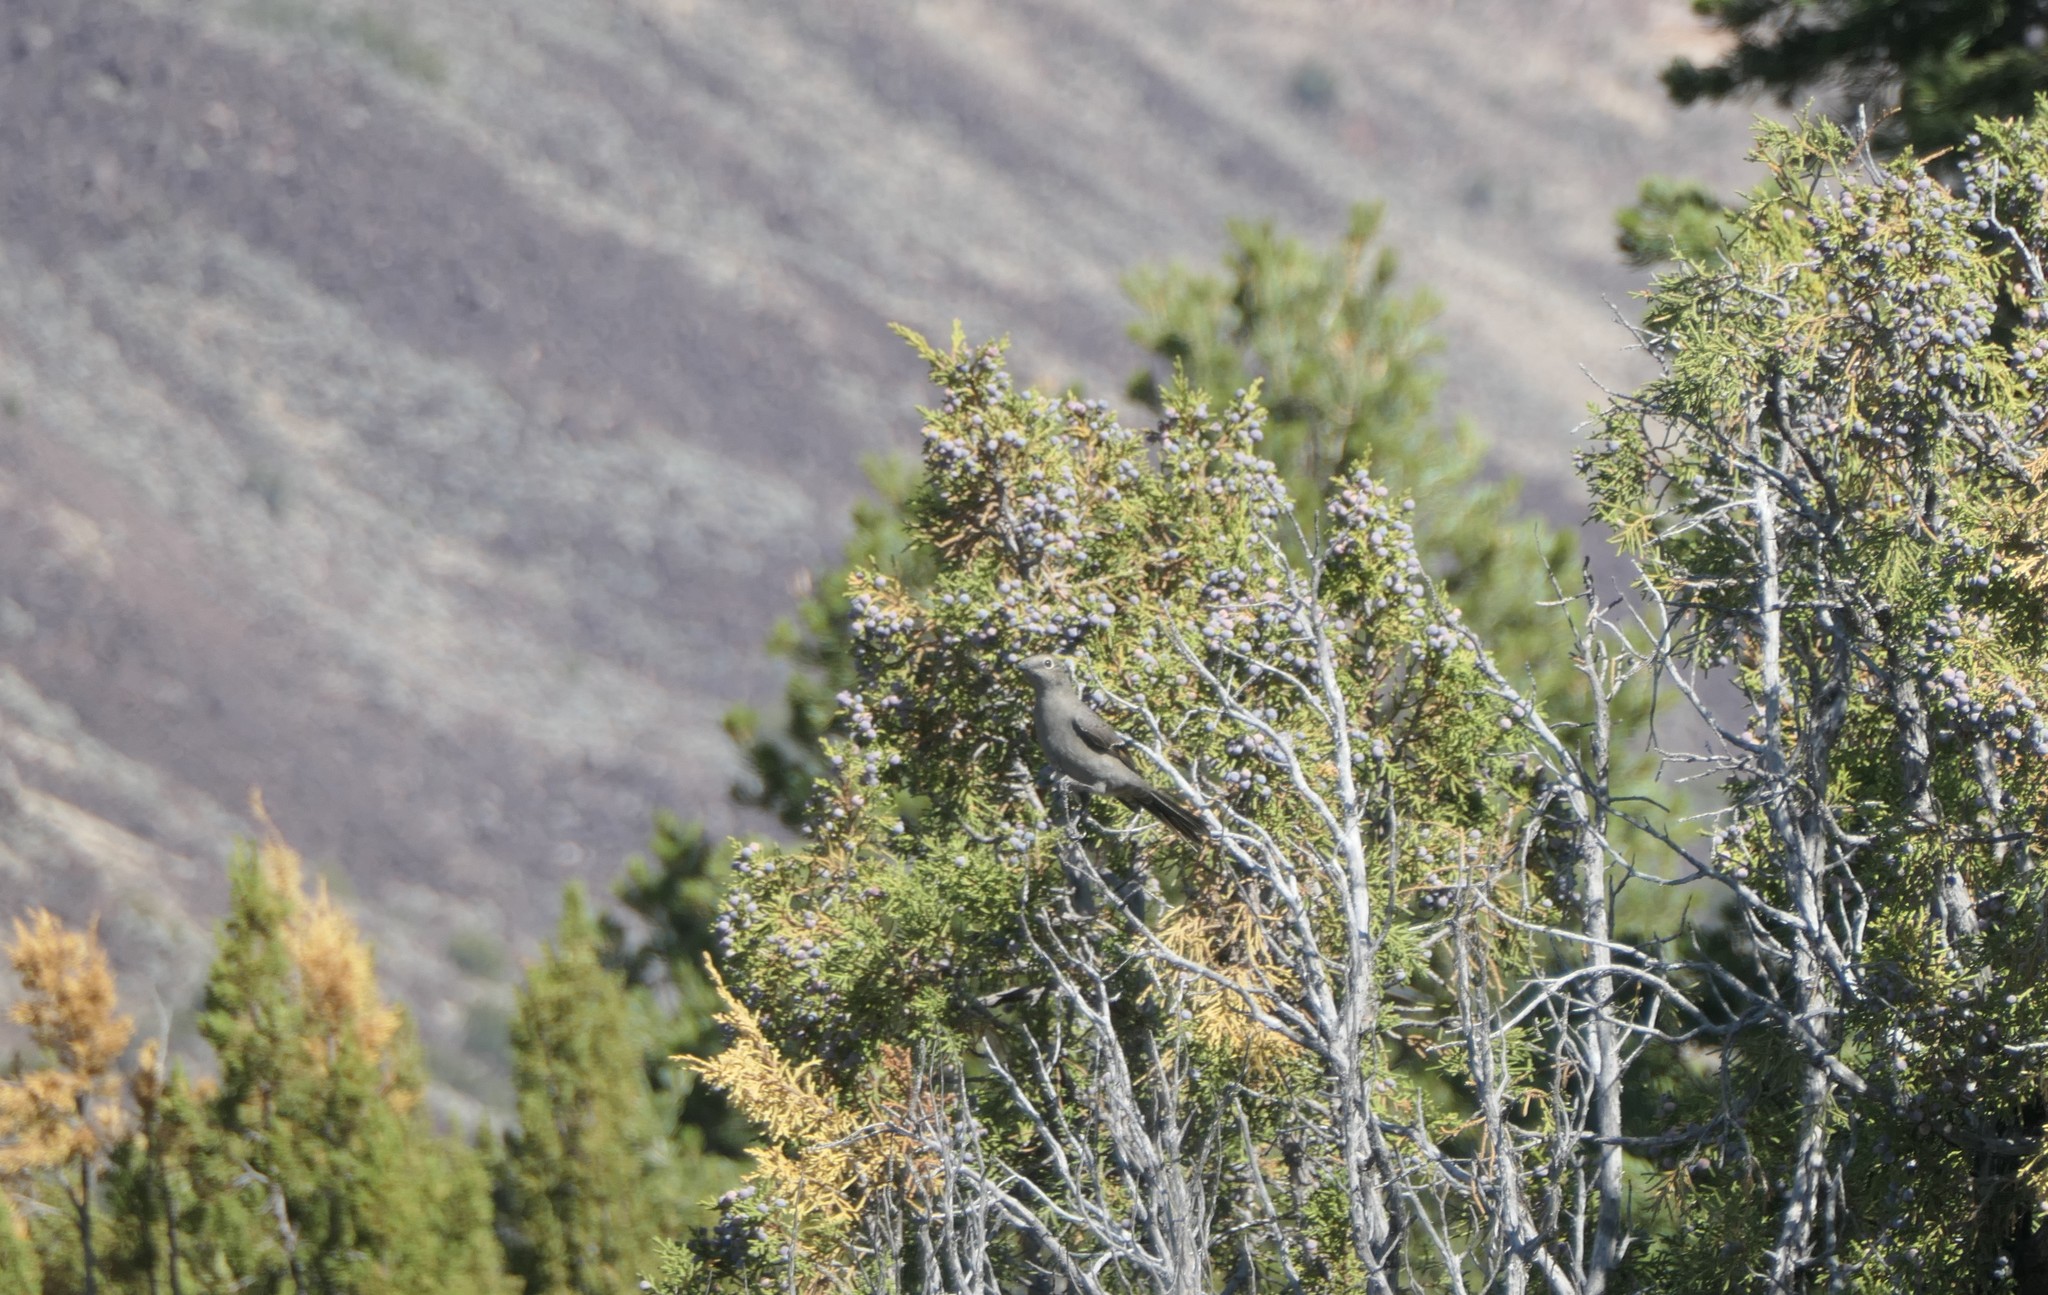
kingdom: Animalia
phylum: Chordata
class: Aves
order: Passeriformes
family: Turdidae
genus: Myadestes
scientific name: Myadestes townsendi
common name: Townsend's solitaire
